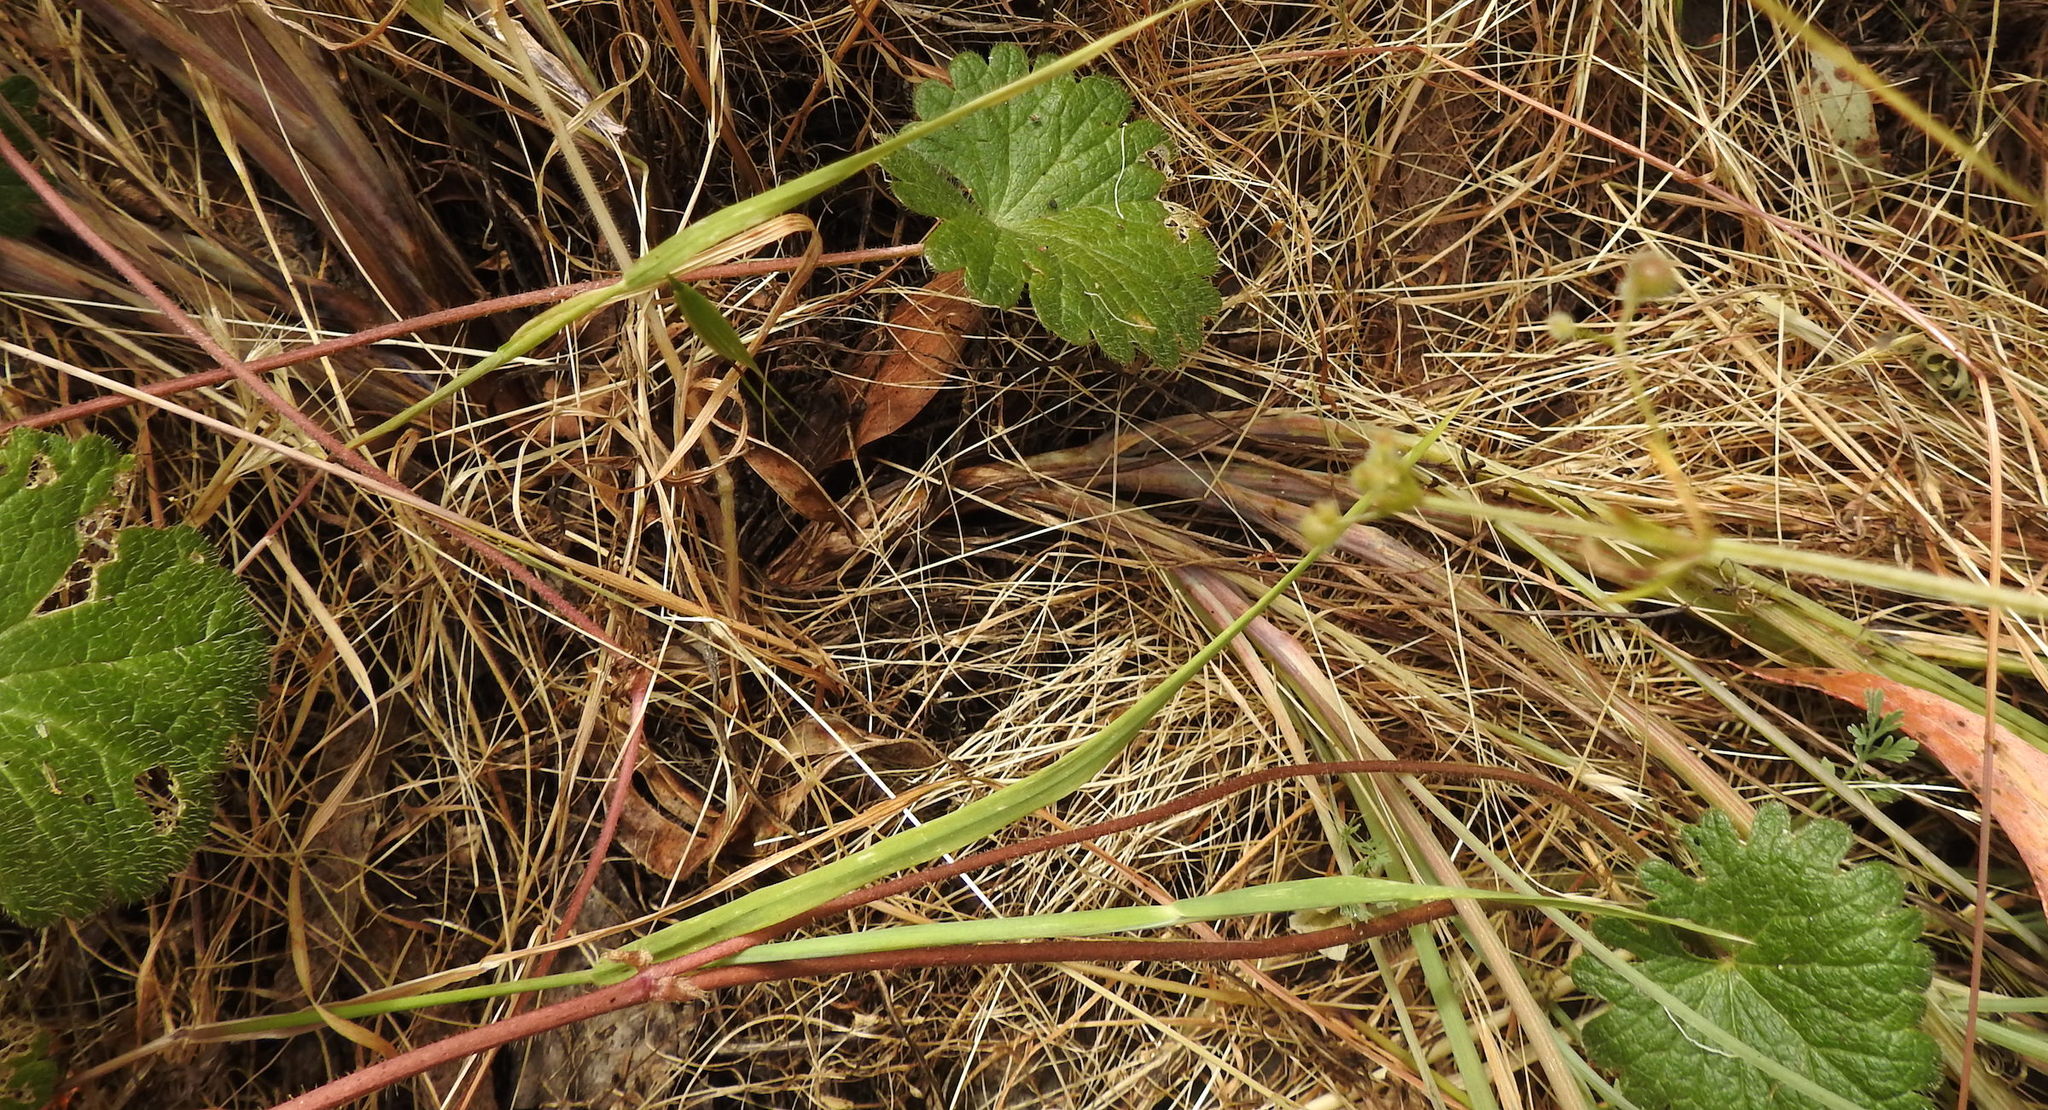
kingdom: Plantae
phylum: Tracheophyta
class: Magnoliopsida
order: Malvales
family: Malvaceae
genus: Sidalcea
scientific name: Sidalcea malviflora
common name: Greek mallow
